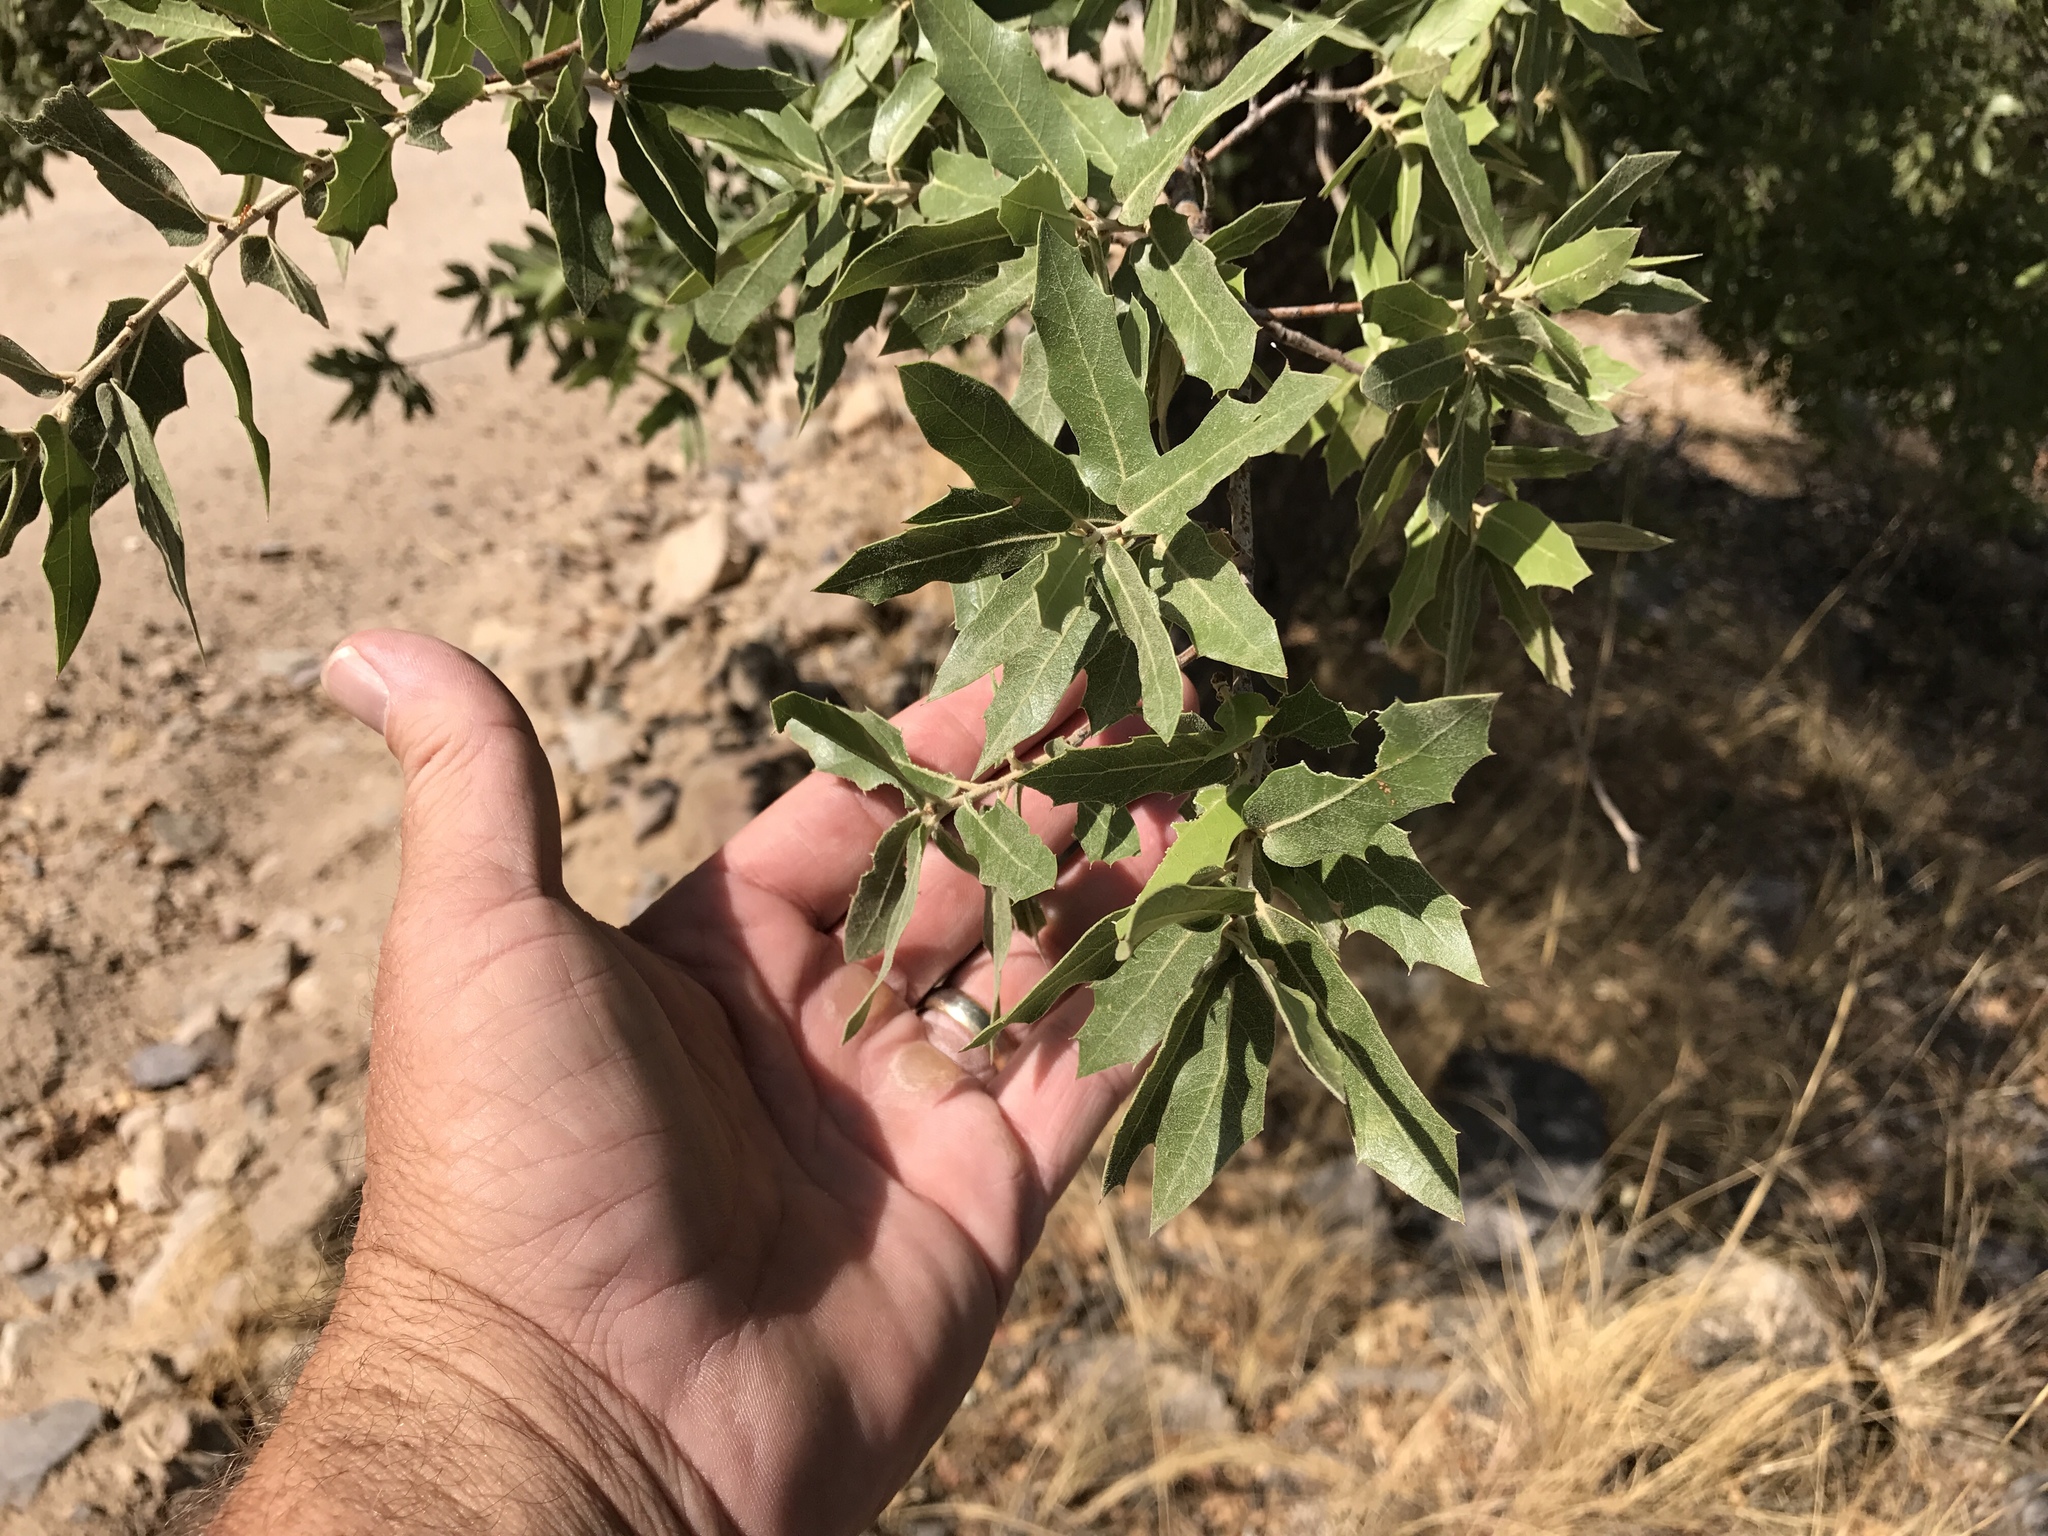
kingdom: Plantae
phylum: Tracheophyta
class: Magnoliopsida
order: Fagales
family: Fagaceae
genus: Quercus
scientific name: Quercus emoryi
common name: Emory oak
